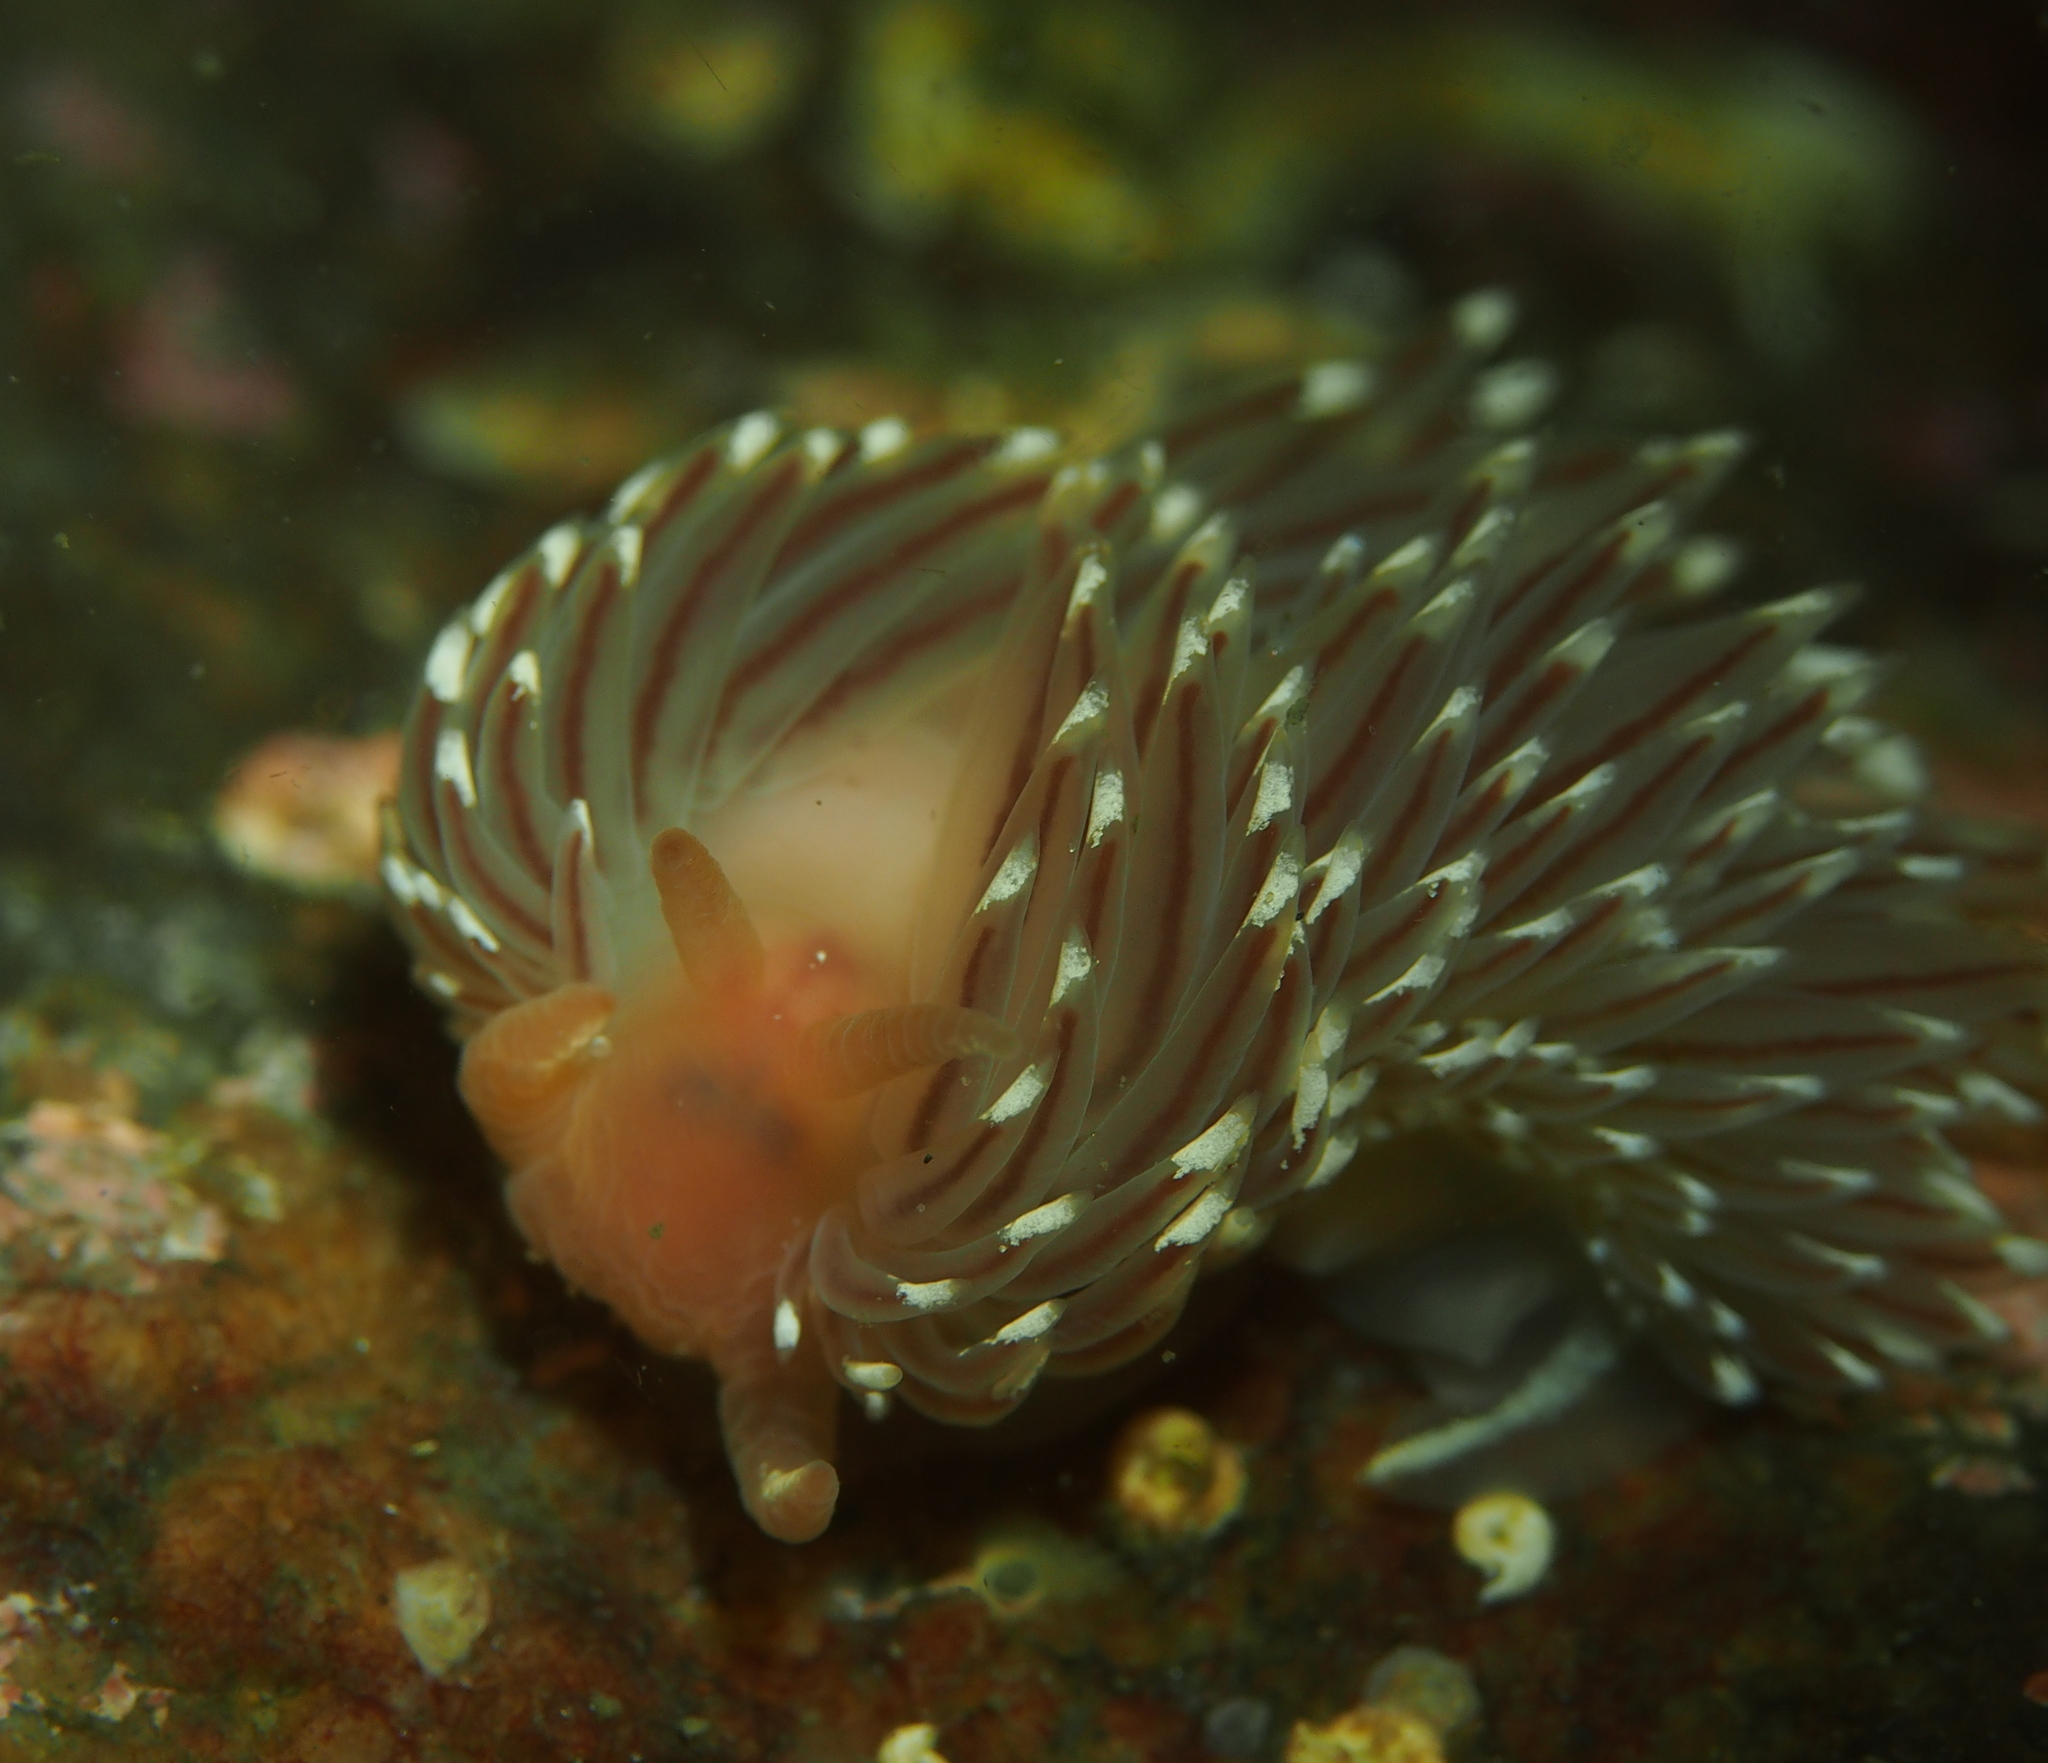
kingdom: Animalia
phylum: Mollusca
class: Gastropoda
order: Nudibranchia
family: Facelinidae
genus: Facelina
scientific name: Facelina bostoniensis
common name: Boston facelina
